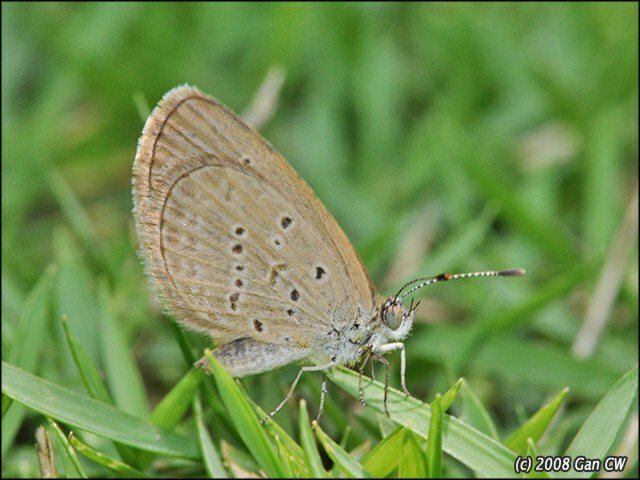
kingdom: Animalia
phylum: Arthropoda
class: Insecta
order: Lepidoptera
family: Lycaenidae
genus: Zizina
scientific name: Zizina otis
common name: Lesser grass blue
